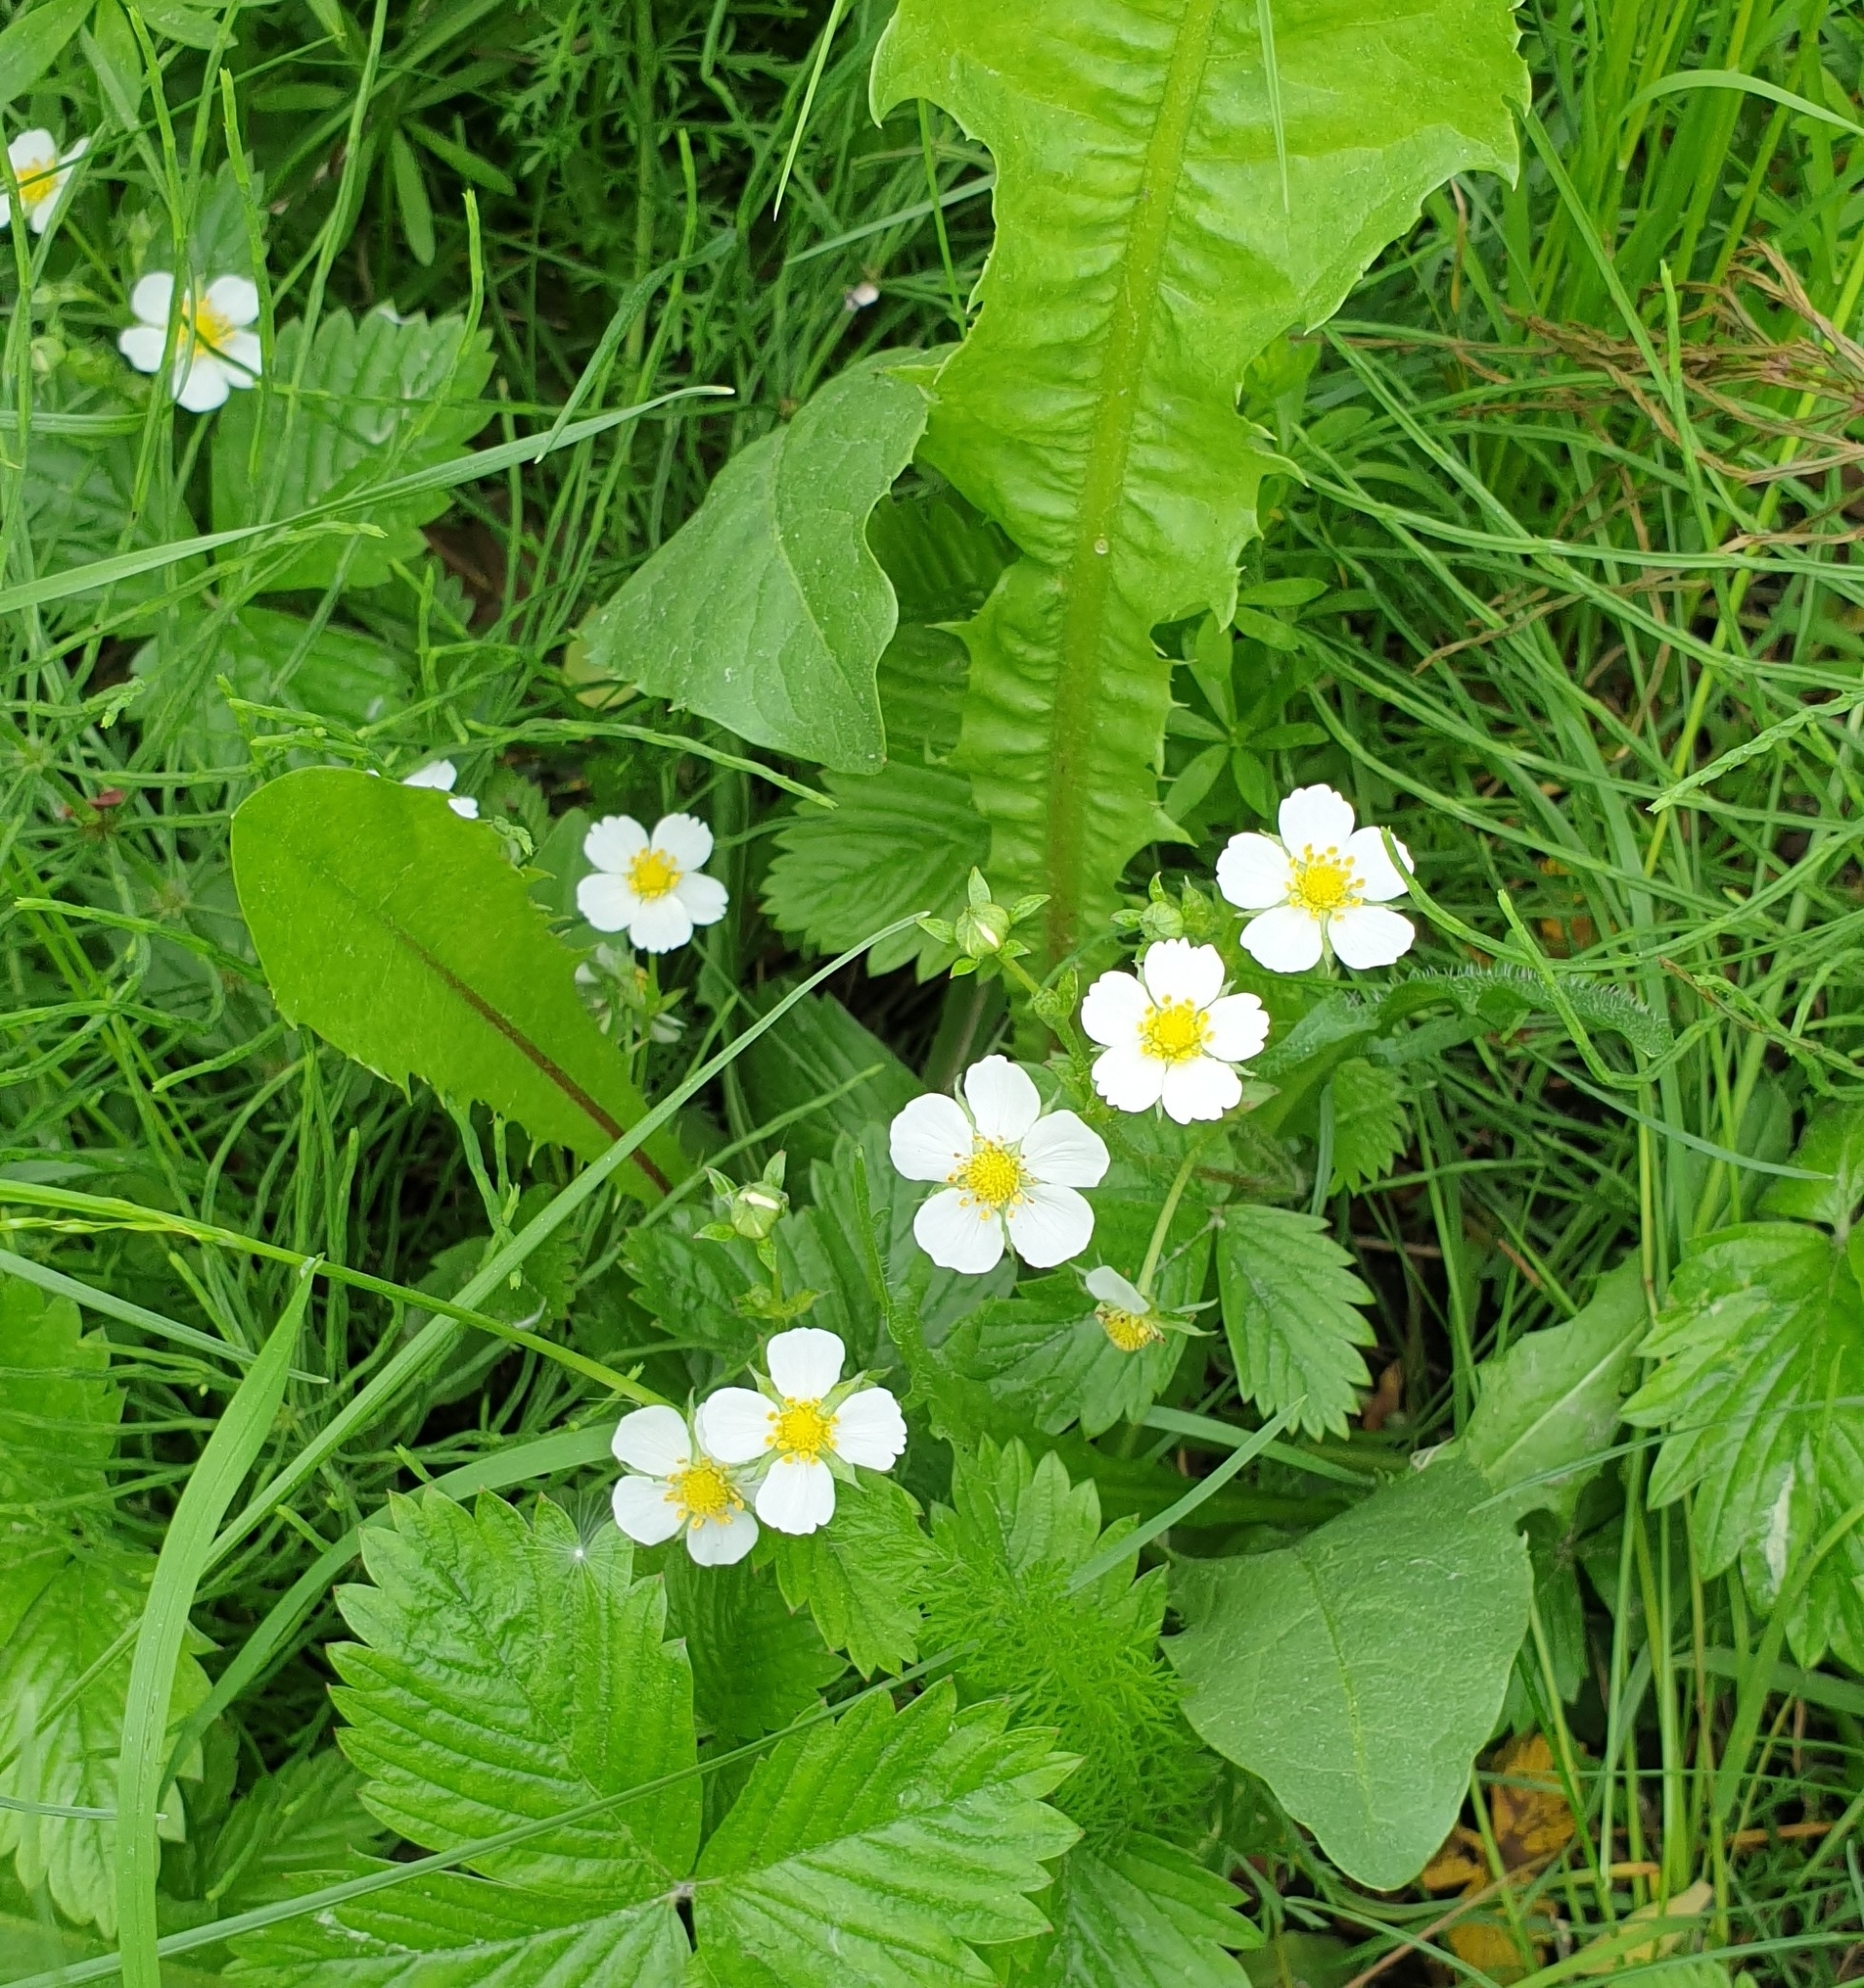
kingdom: Plantae
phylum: Tracheophyta
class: Magnoliopsida
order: Rosales
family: Rosaceae
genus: Fragaria
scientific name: Fragaria vesca
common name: Wild strawberry
